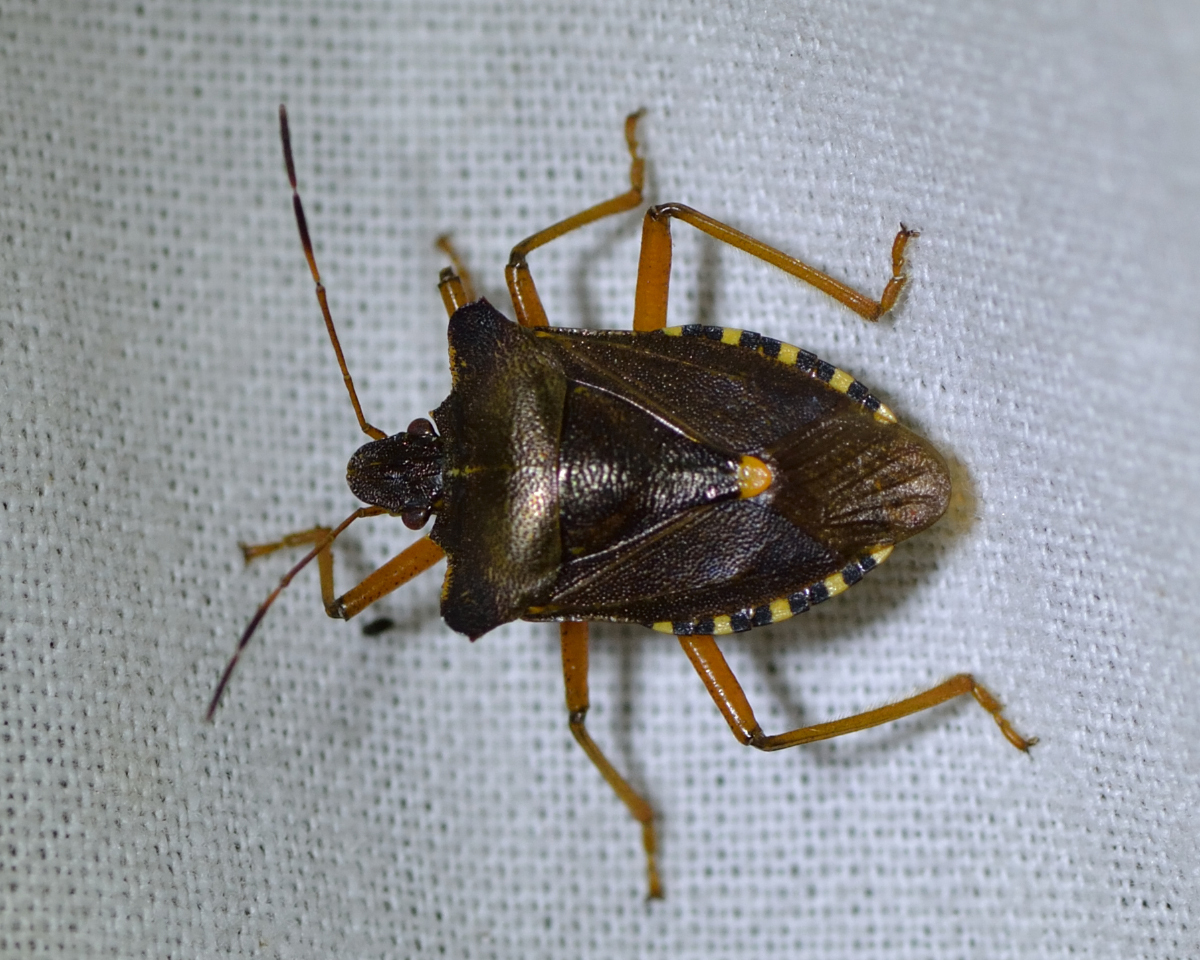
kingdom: Animalia
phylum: Arthropoda
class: Insecta
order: Hemiptera
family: Pentatomidae
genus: Pentatoma
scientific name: Pentatoma rufipes
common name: Forest bug
